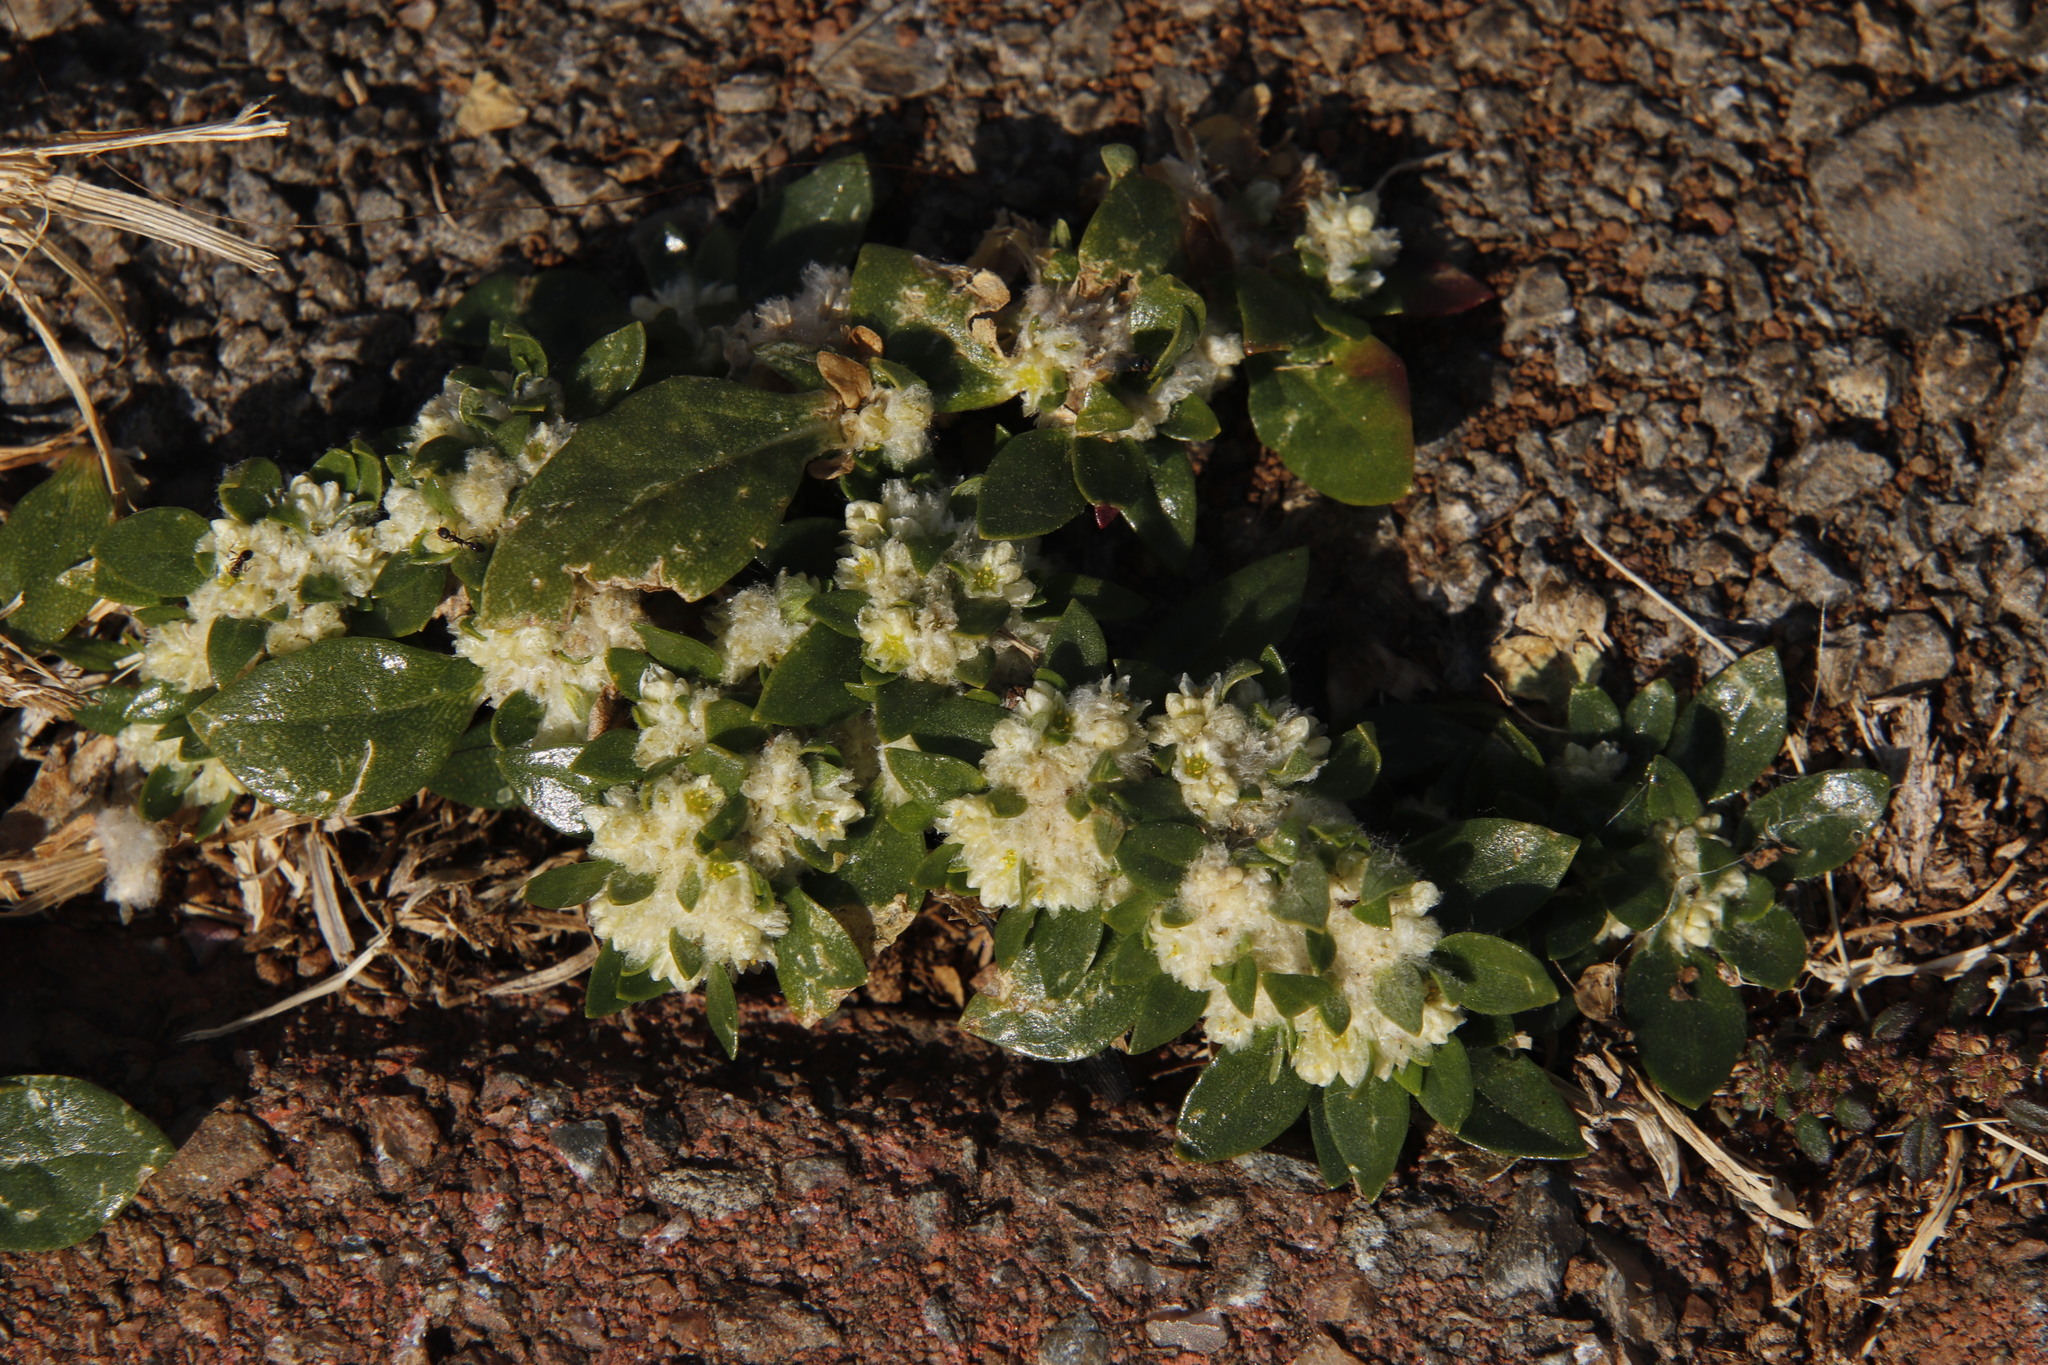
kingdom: Plantae
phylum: Tracheophyta
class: Magnoliopsida
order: Caryophyllales
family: Amaranthaceae
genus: Guilleminea
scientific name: Guilleminea densa
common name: Small matweed
